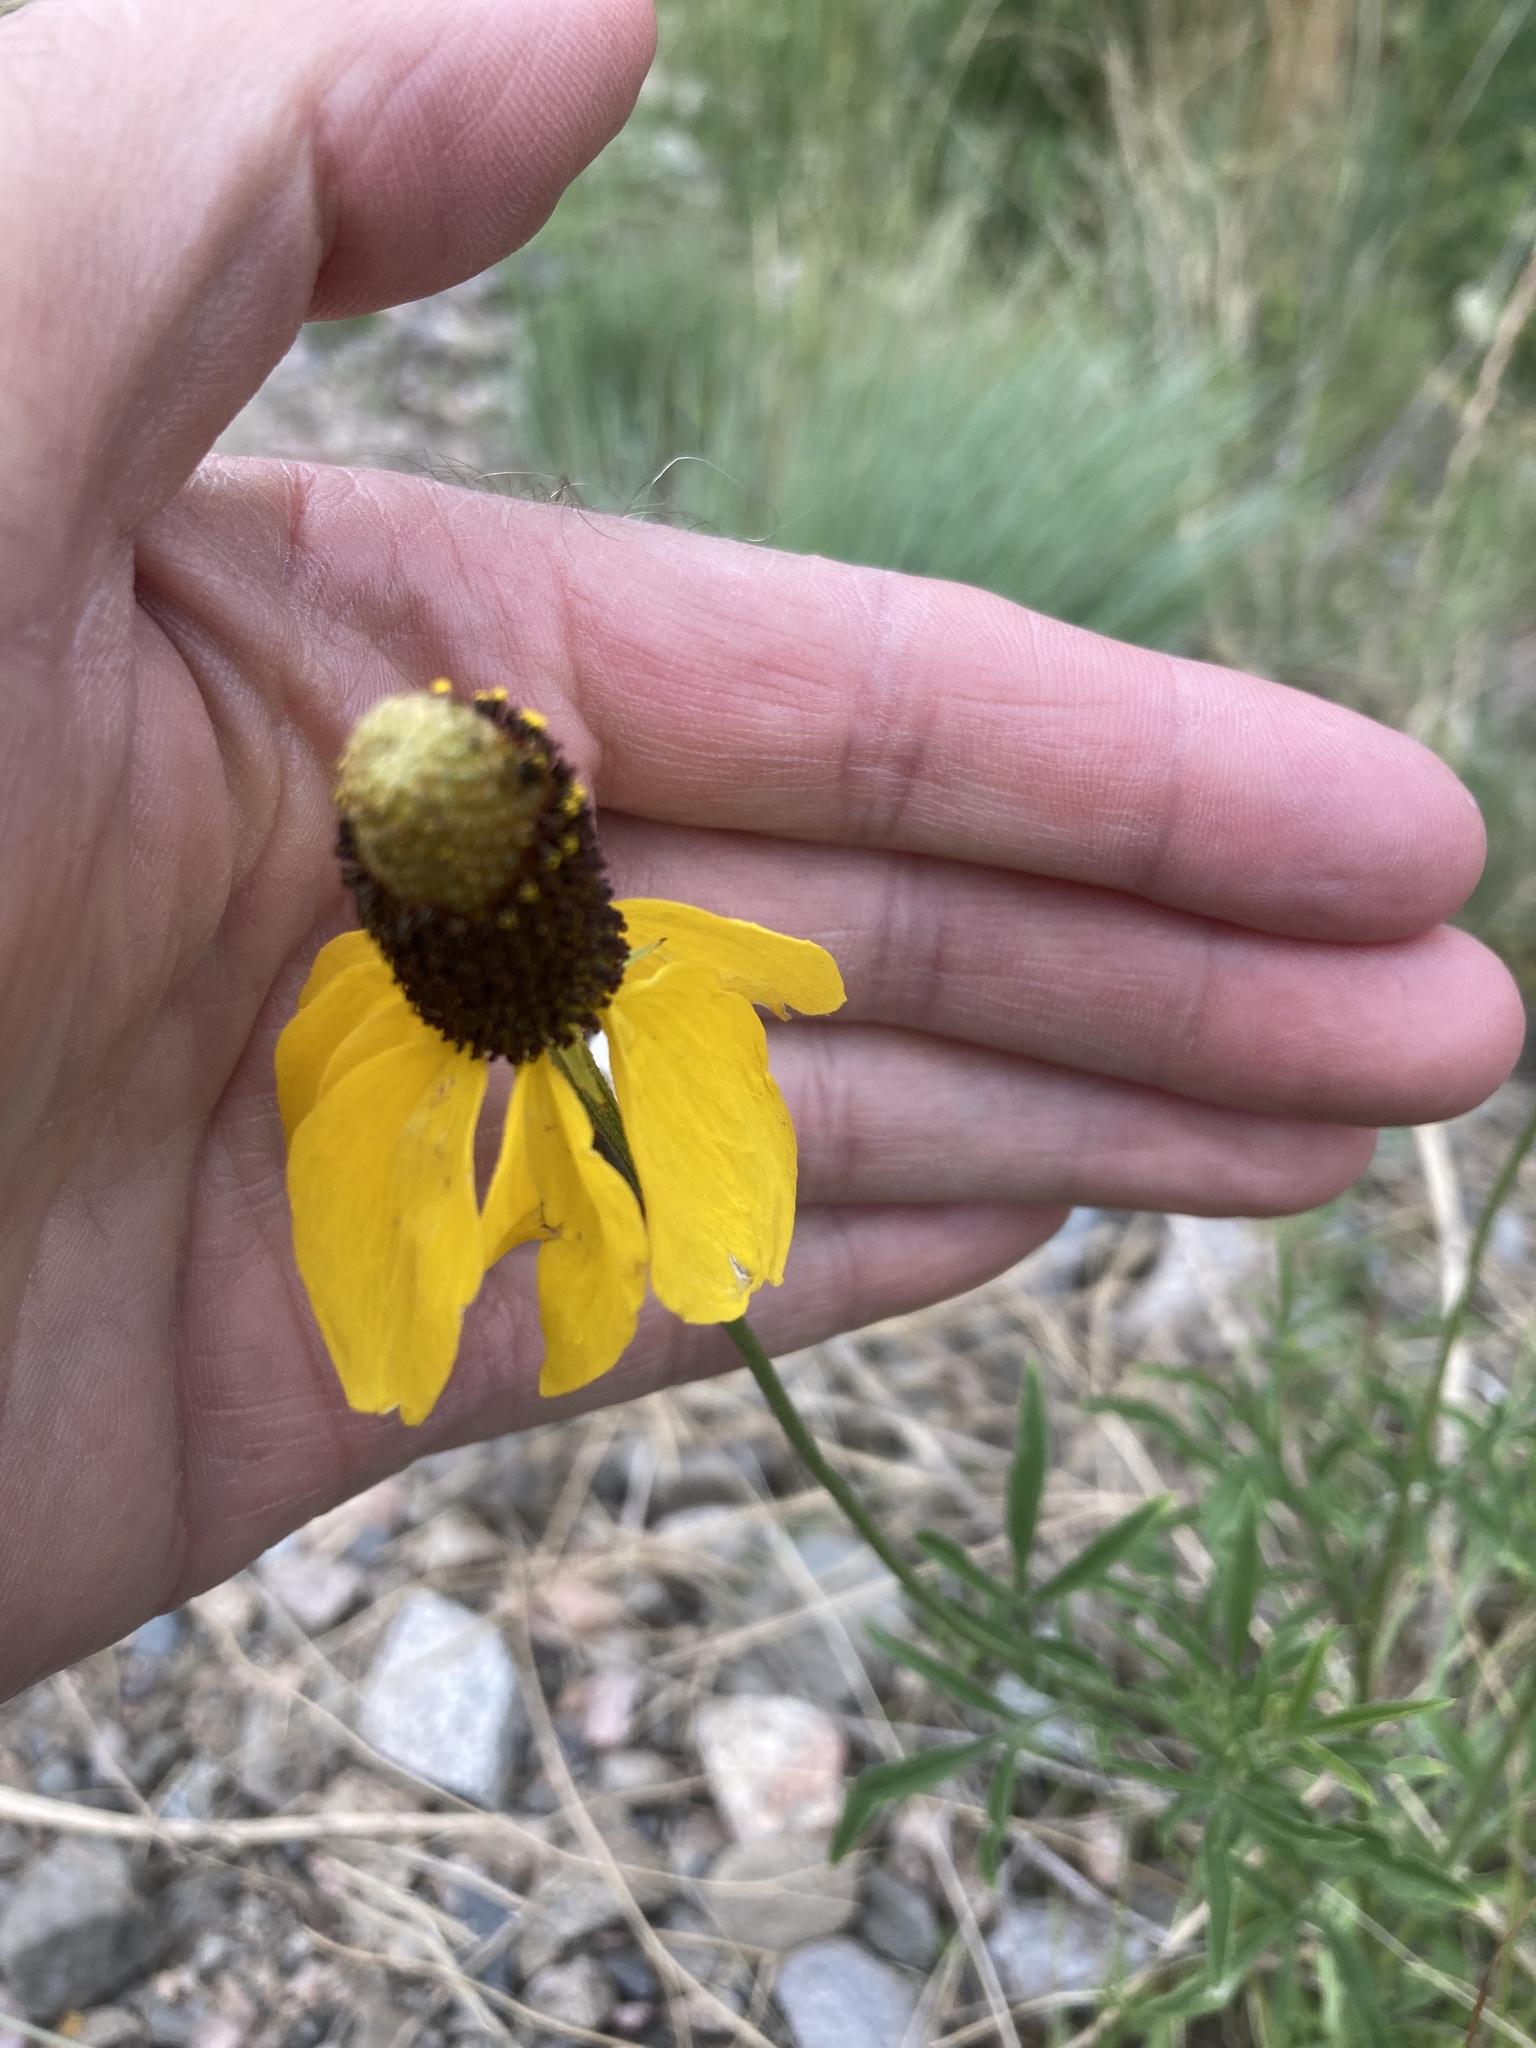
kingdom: Plantae
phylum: Tracheophyta
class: Magnoliopsida
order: Asterales
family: Asteraceae
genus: Ratibida
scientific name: Ratibida columnifera
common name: Prairie coneflower
